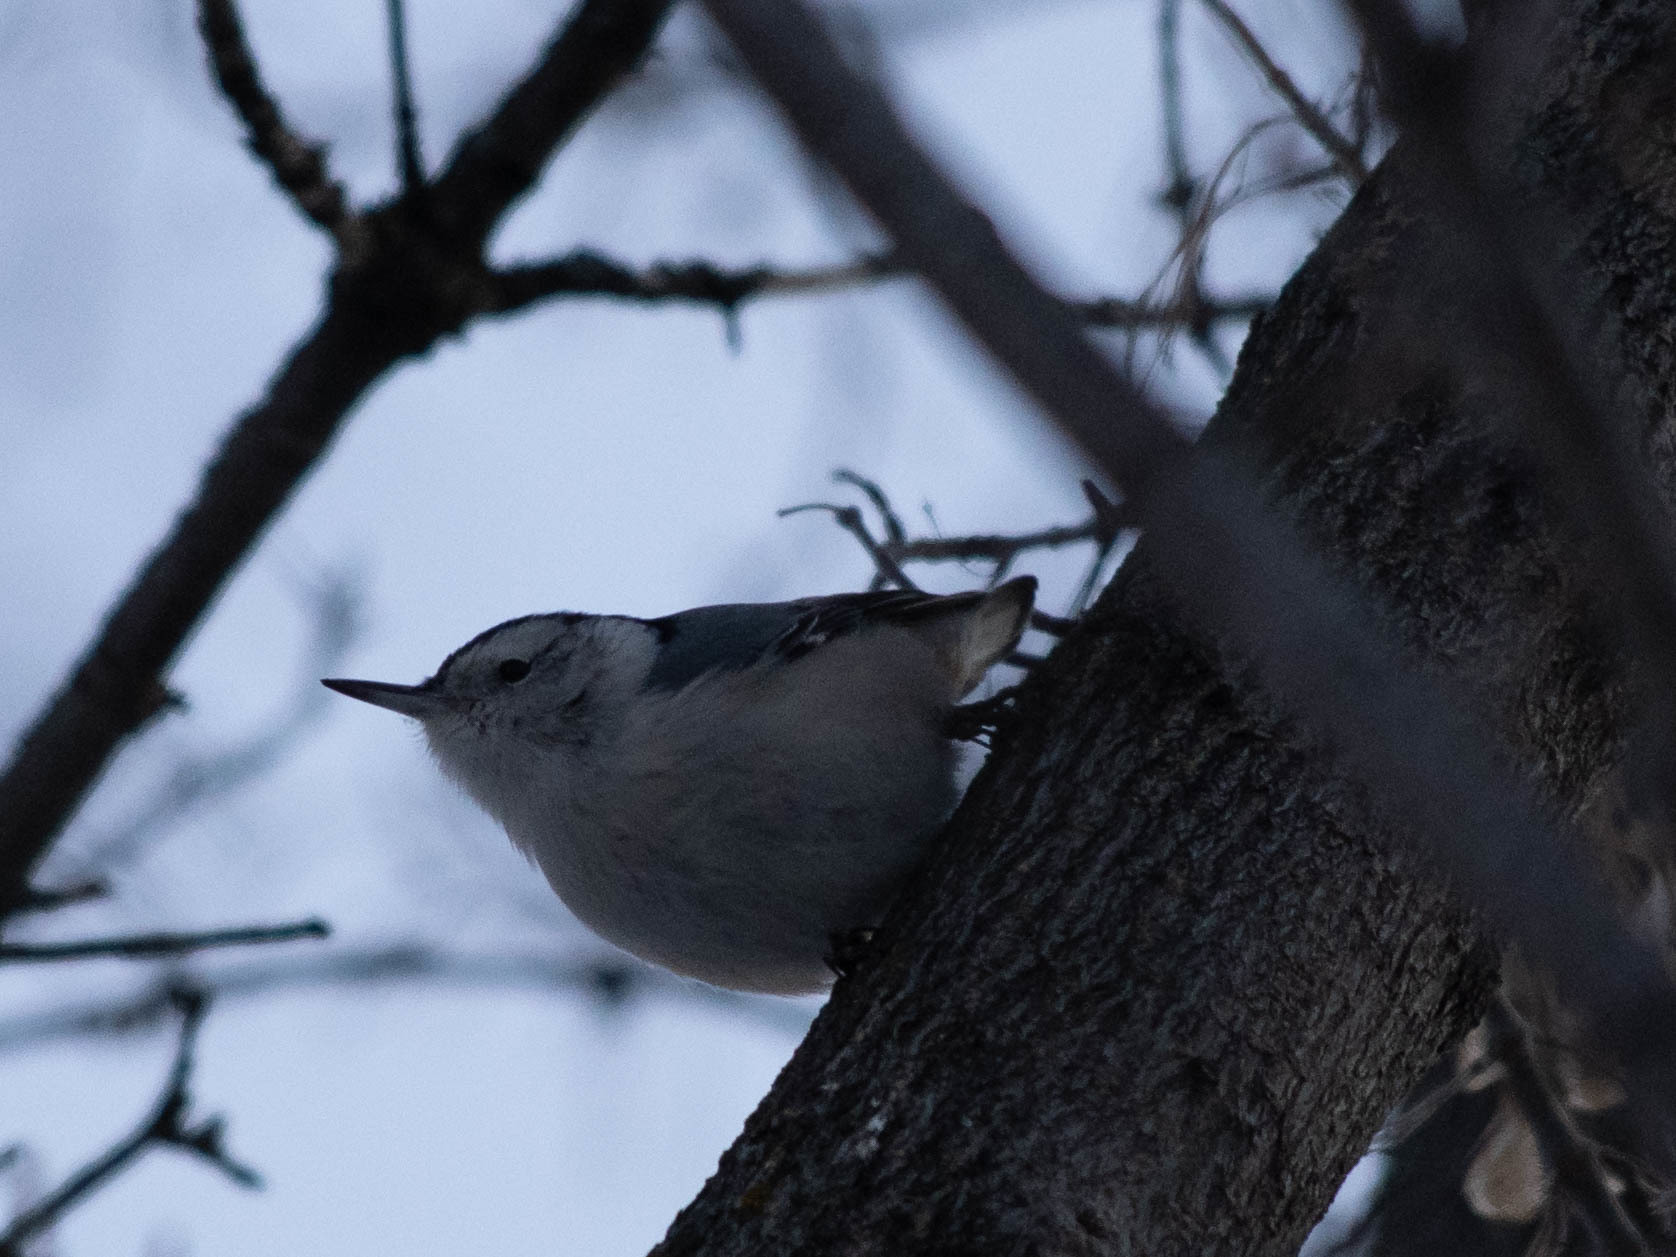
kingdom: Animalia
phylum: Chordata
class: Aves
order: Passeriformes
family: Sittidae
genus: Sitta
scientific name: Sitta carolinensis
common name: White-breasted nuthatch
